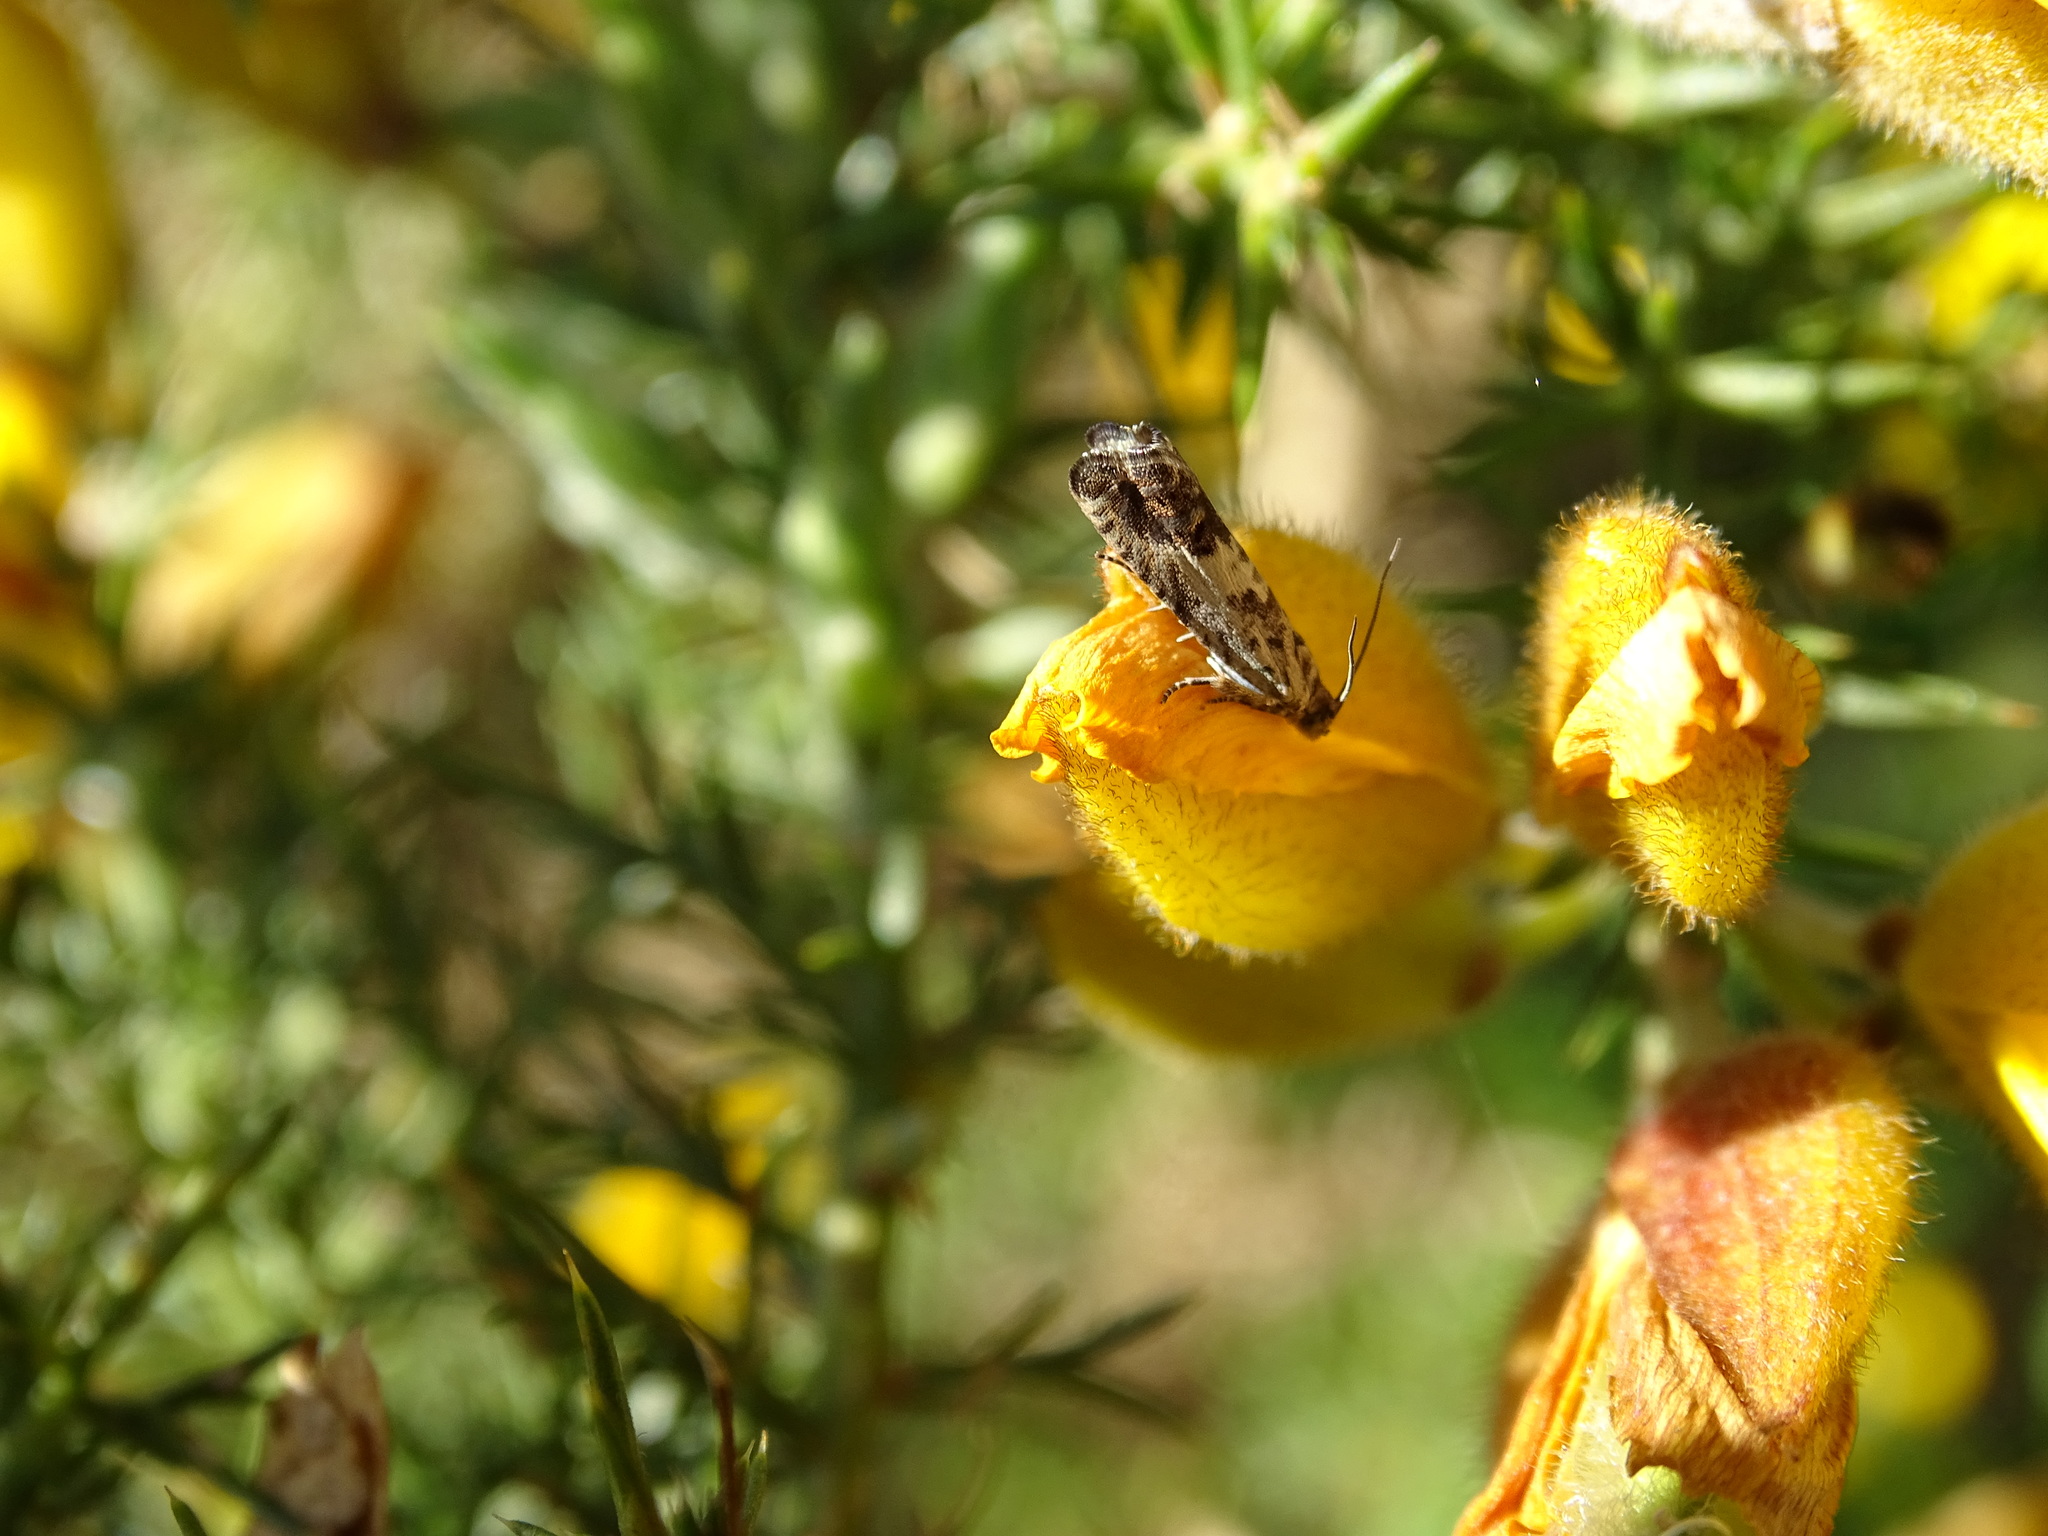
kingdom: Animalia
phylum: Arthropoda
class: Insecta
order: Lepidoptera
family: Tortricidae
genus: Cydia
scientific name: Cydia succedana
